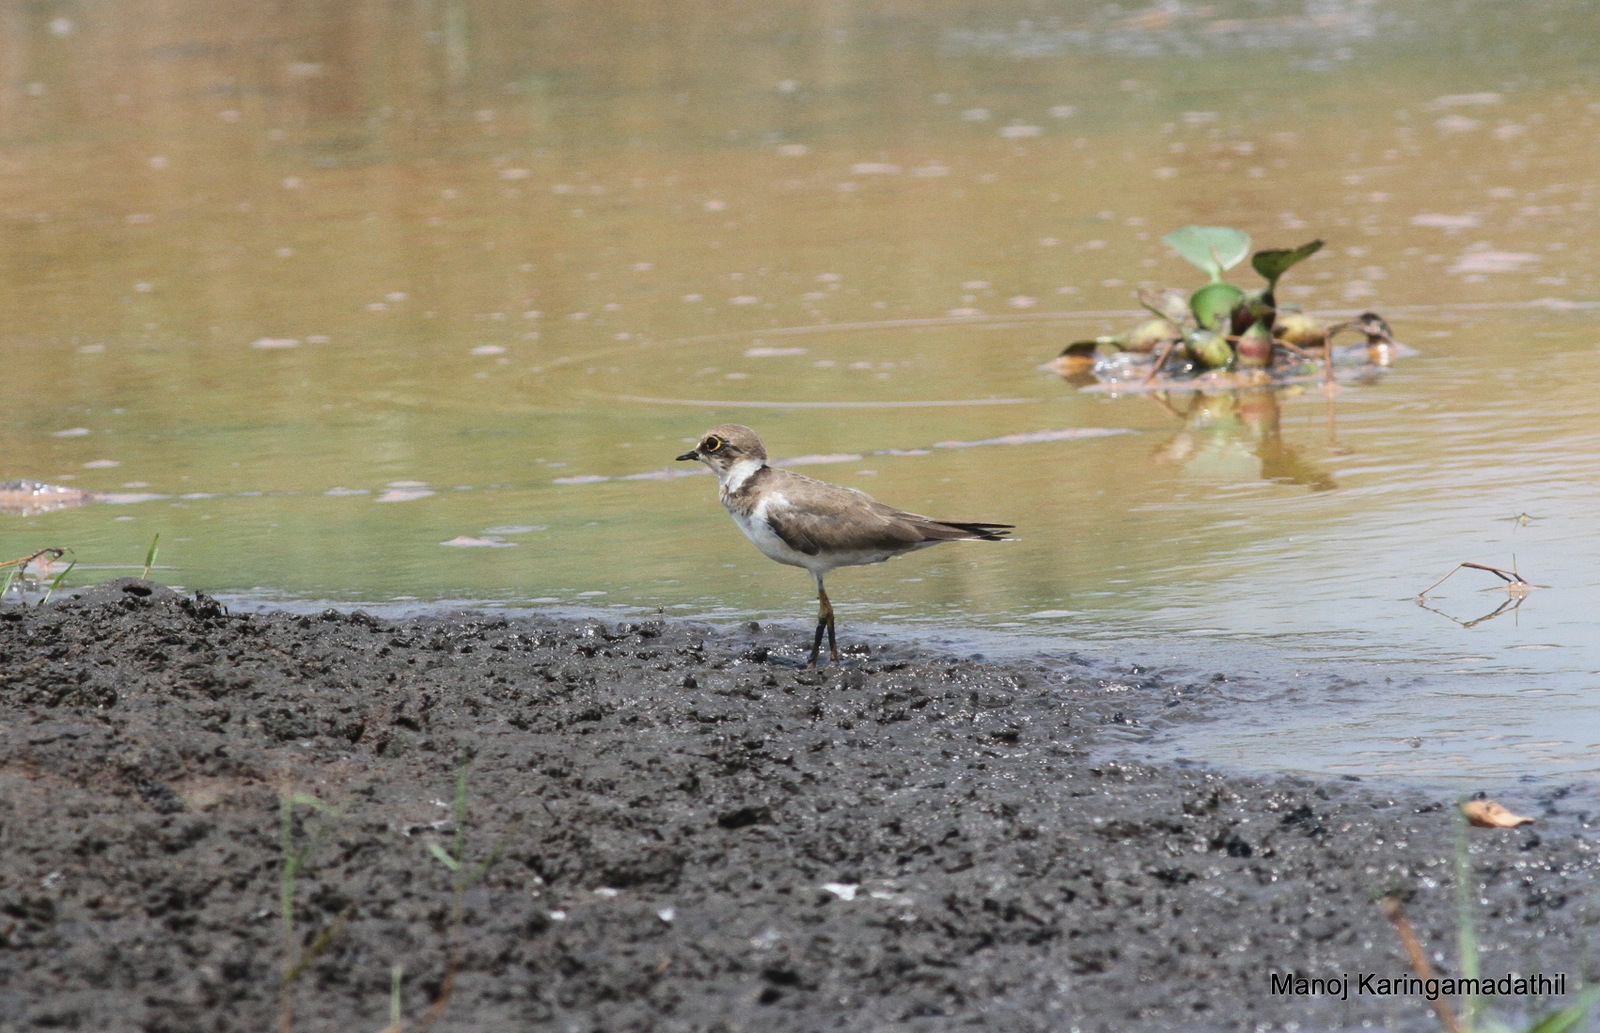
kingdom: Animalia
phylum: Chordata
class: Aves
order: Charadriiformes
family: Charadriidae
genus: Charadrius
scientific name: Charadrius dubius
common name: Little ringed plover
